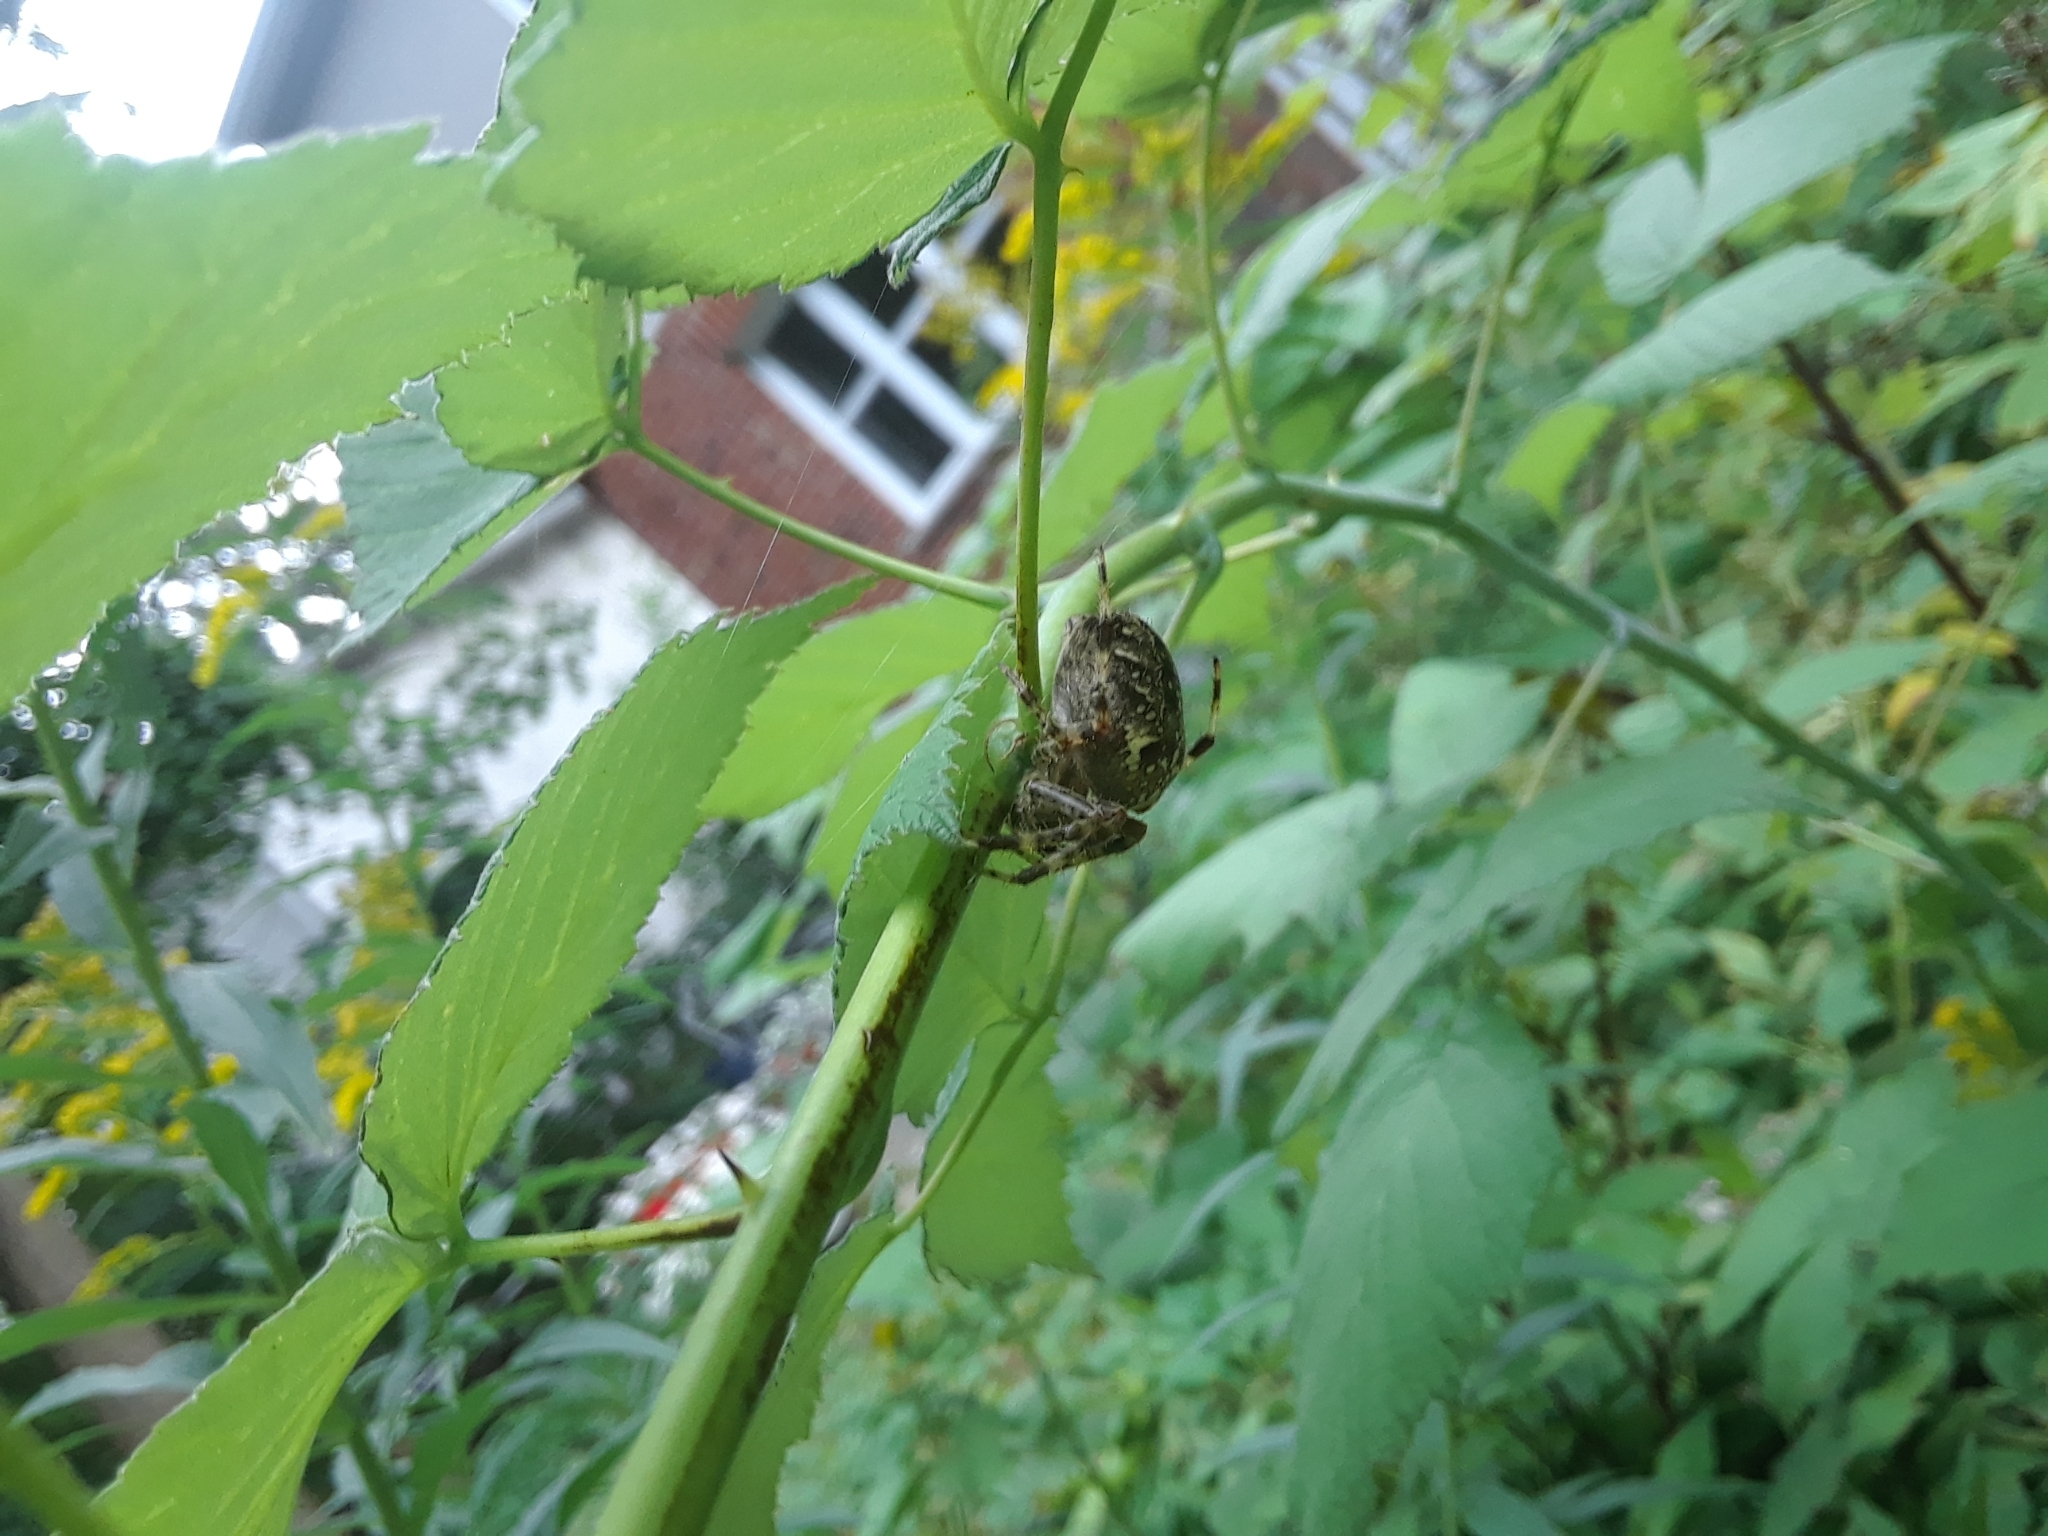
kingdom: Animalia
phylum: Arthropoda
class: Arachnida
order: Araneae
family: Araneidae
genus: Araneus
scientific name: Araneus diadematus
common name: Cross orbweaver
